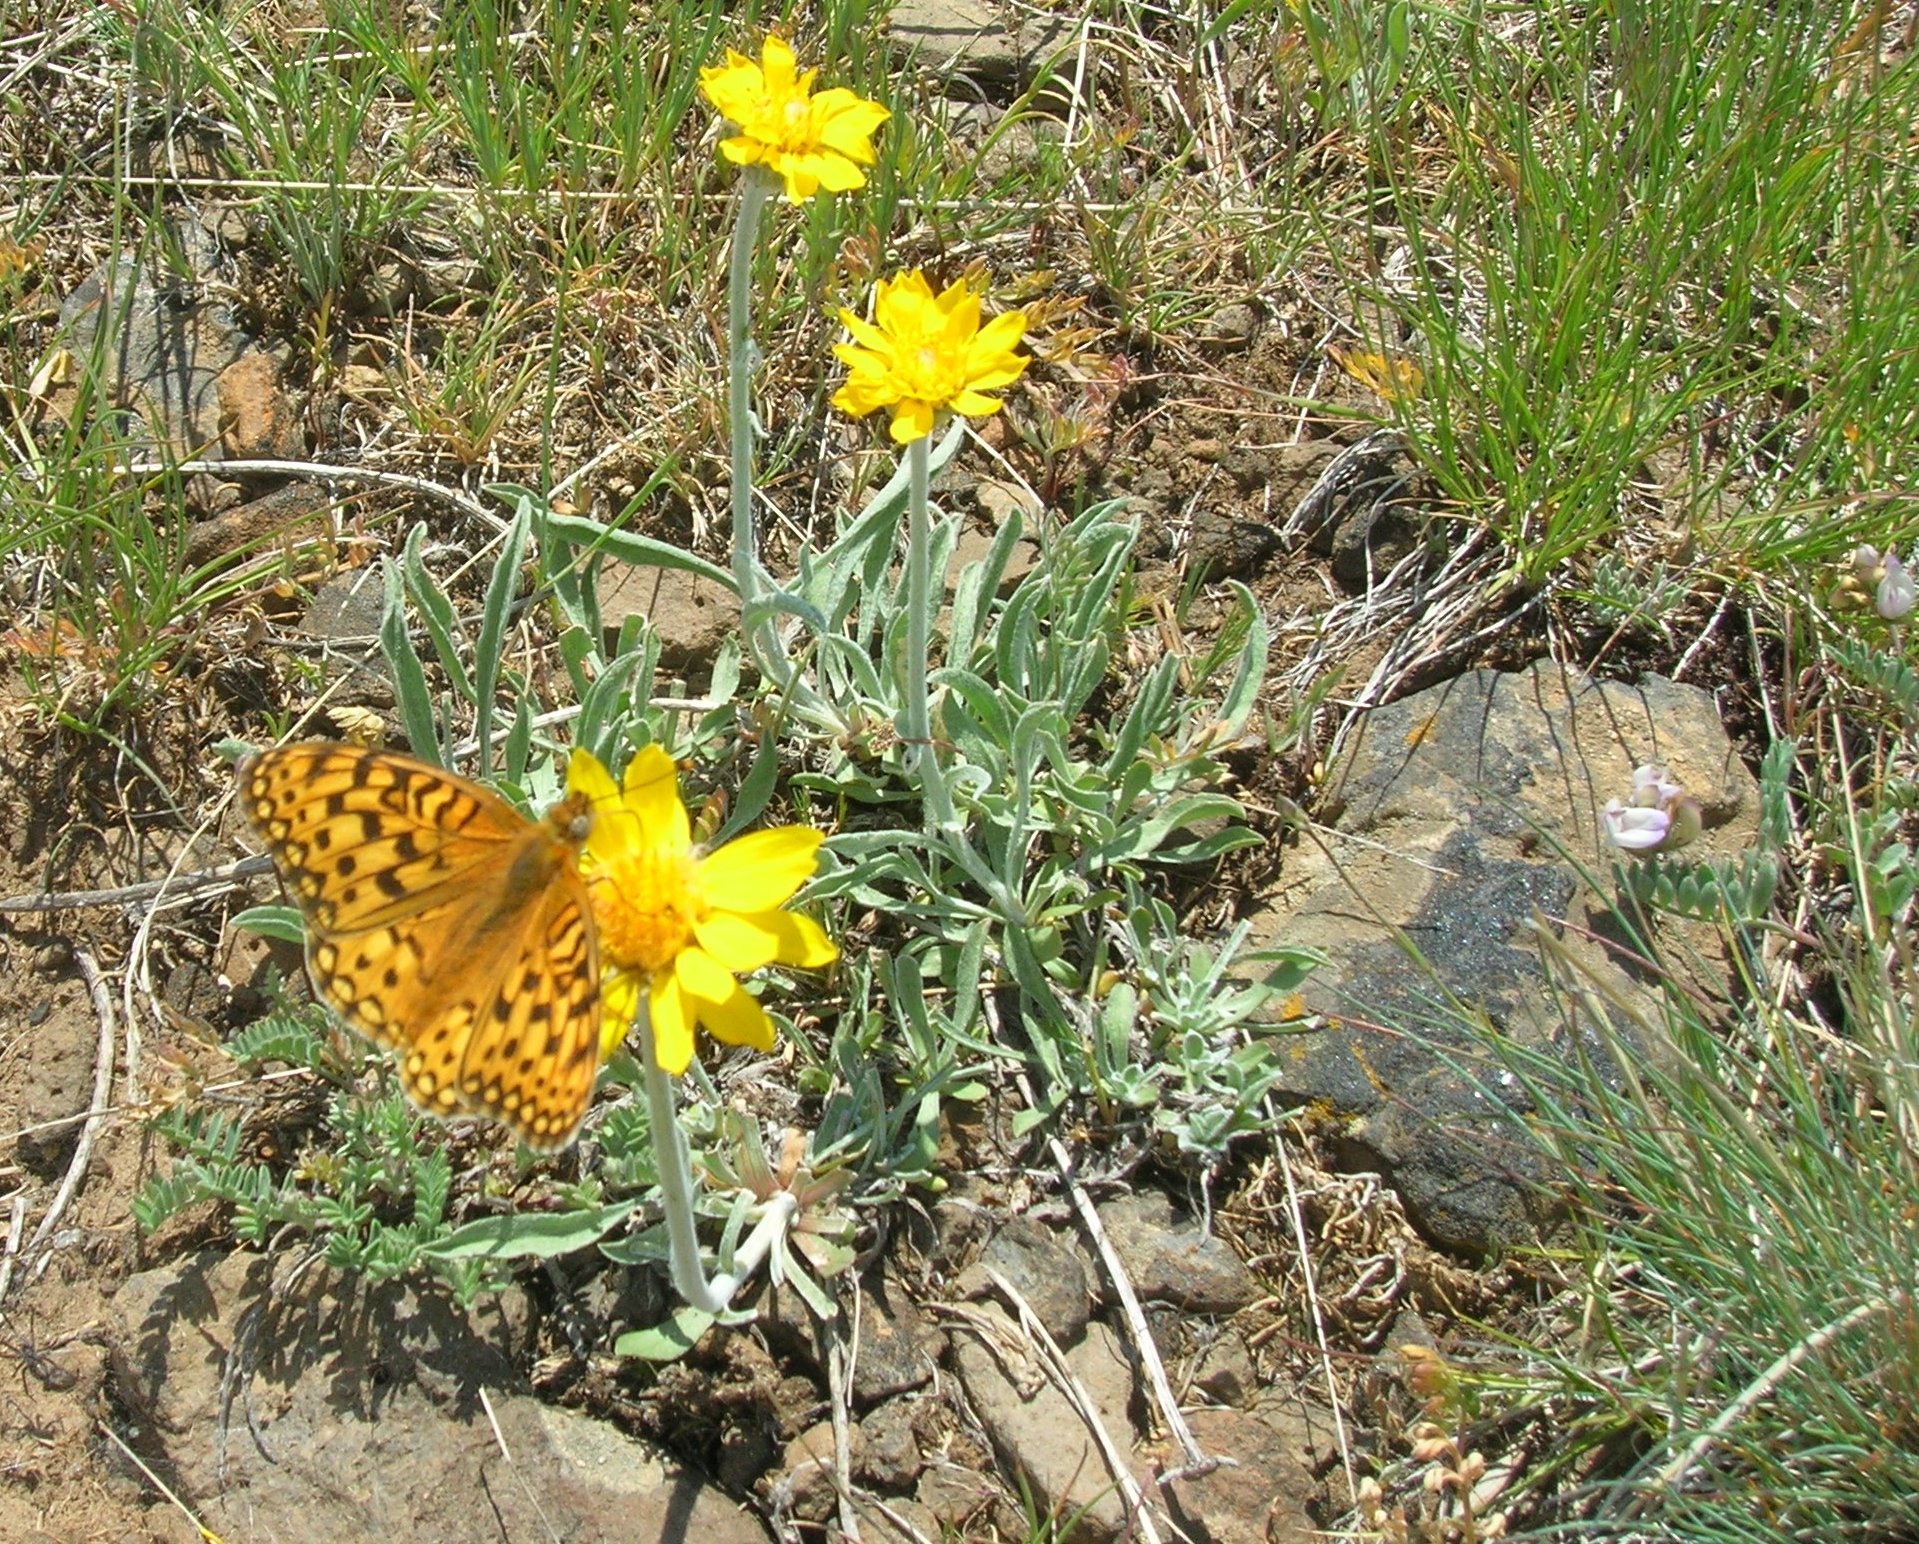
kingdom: Plantae
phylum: Tracheophyta
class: Magnoliopsida
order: Asterales
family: Asteraceae
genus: Nestotus
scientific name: Nestotus lanuginosus
